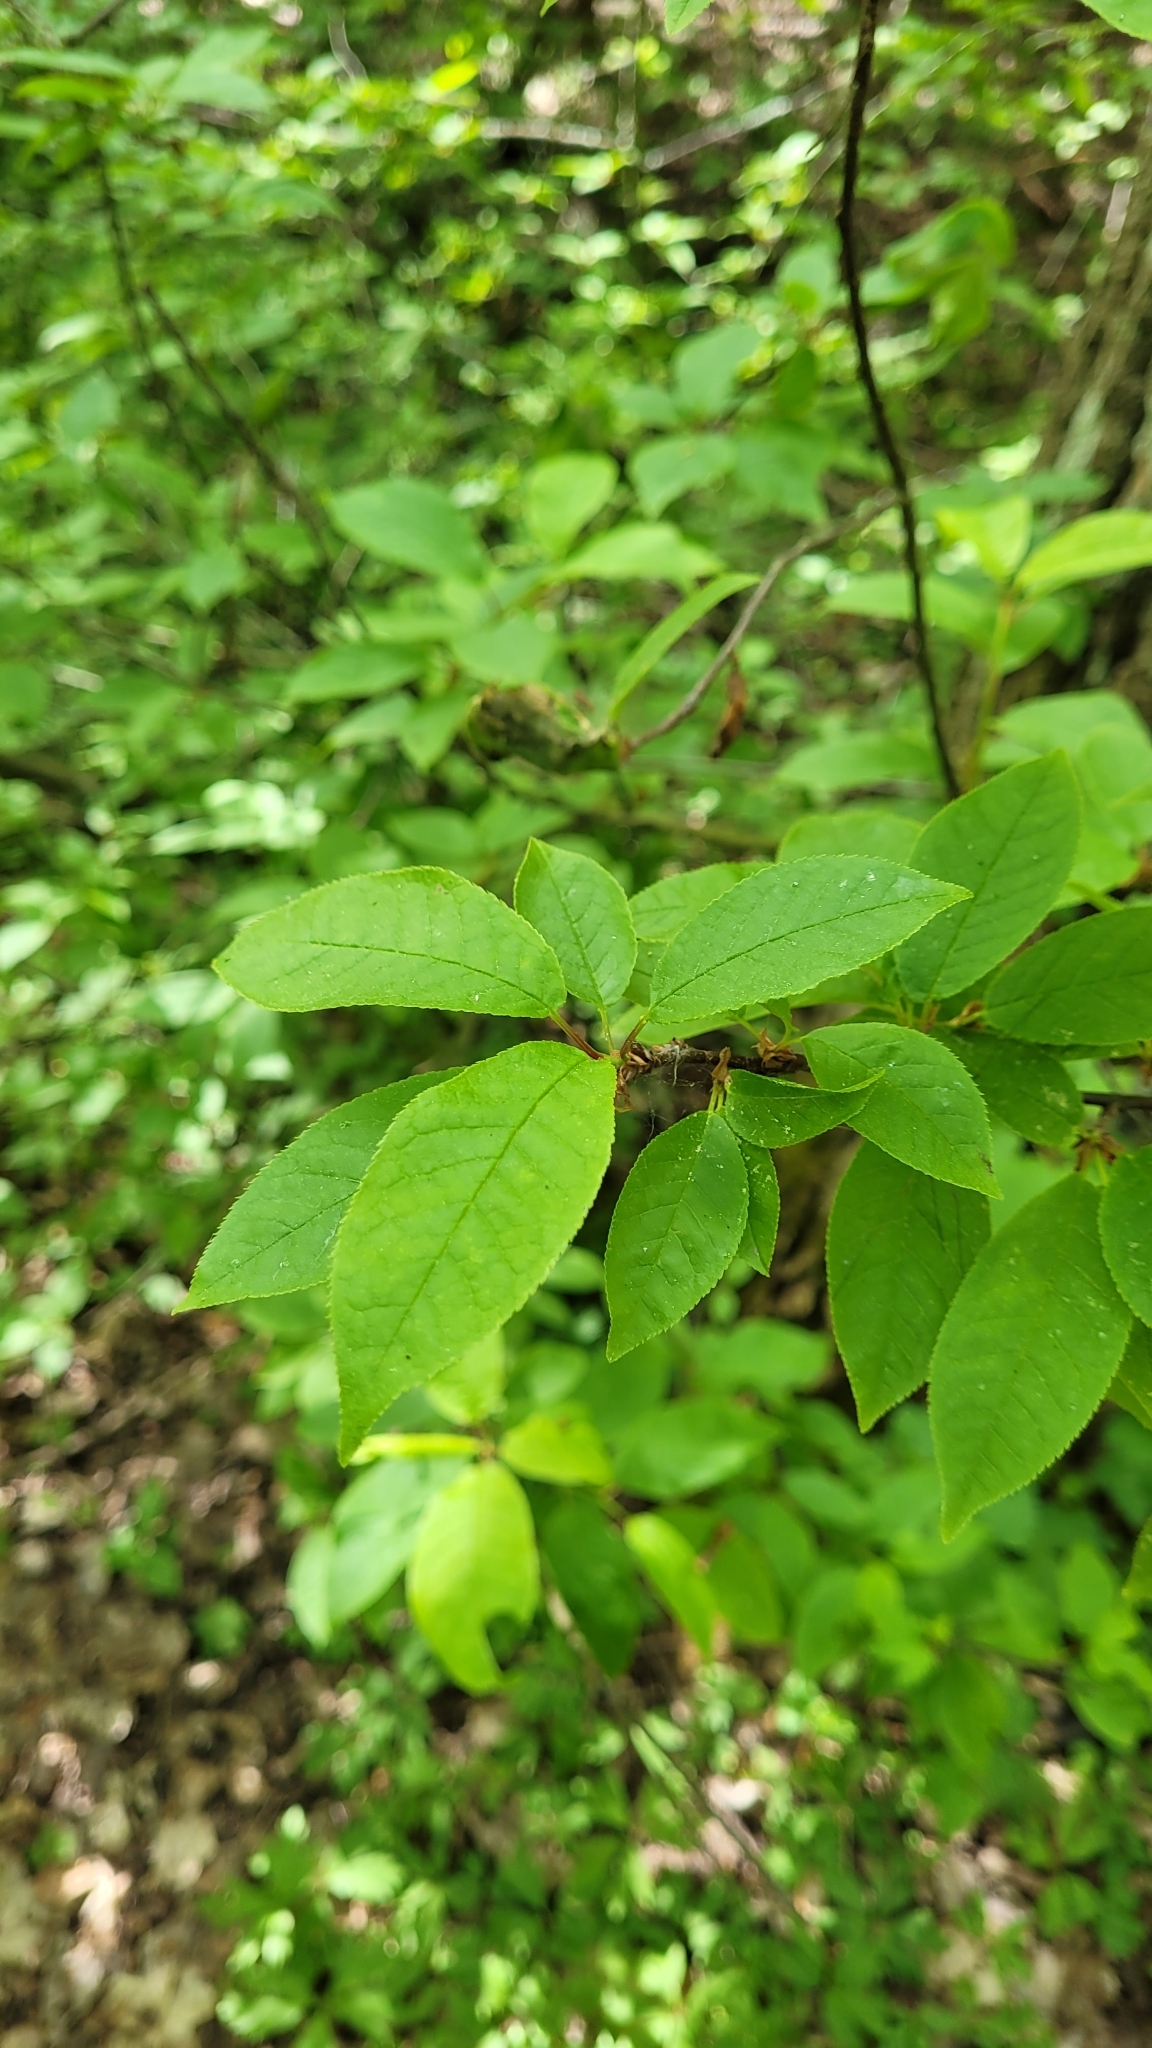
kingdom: Plantae
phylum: Tracheophyta
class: Magnoliopsida
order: Rosales
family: Rosaceae
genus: Prunus
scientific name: Prunus padus
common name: Bird cherry
